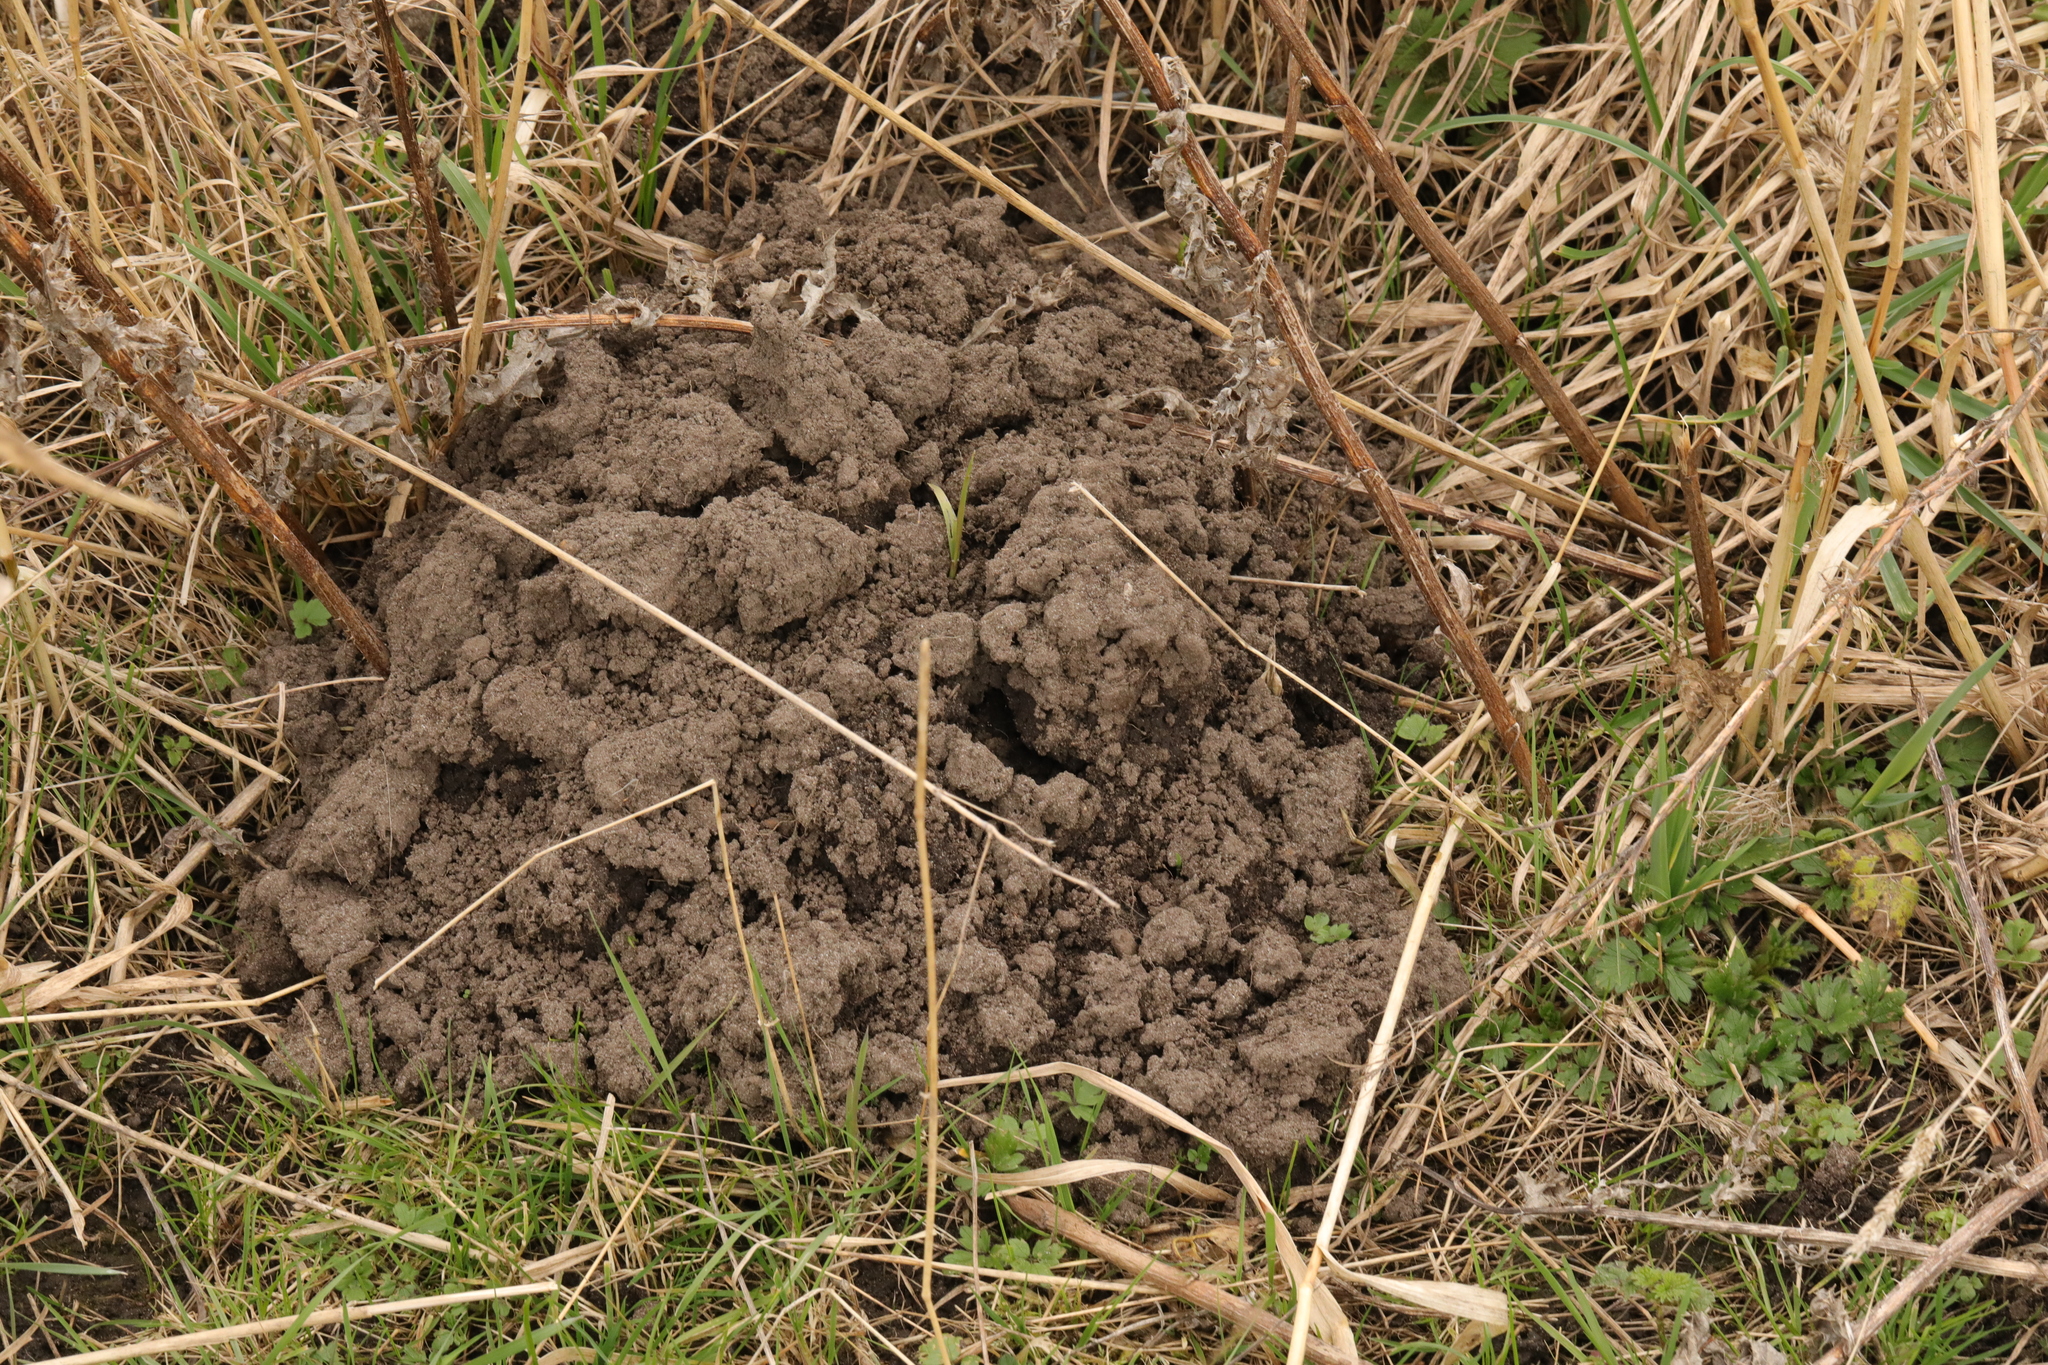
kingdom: Animalia
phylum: Chordata
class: Mammalia
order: Soricomorpha
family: Talpidae
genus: Talpa
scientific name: Talpa europaea
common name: European mole
